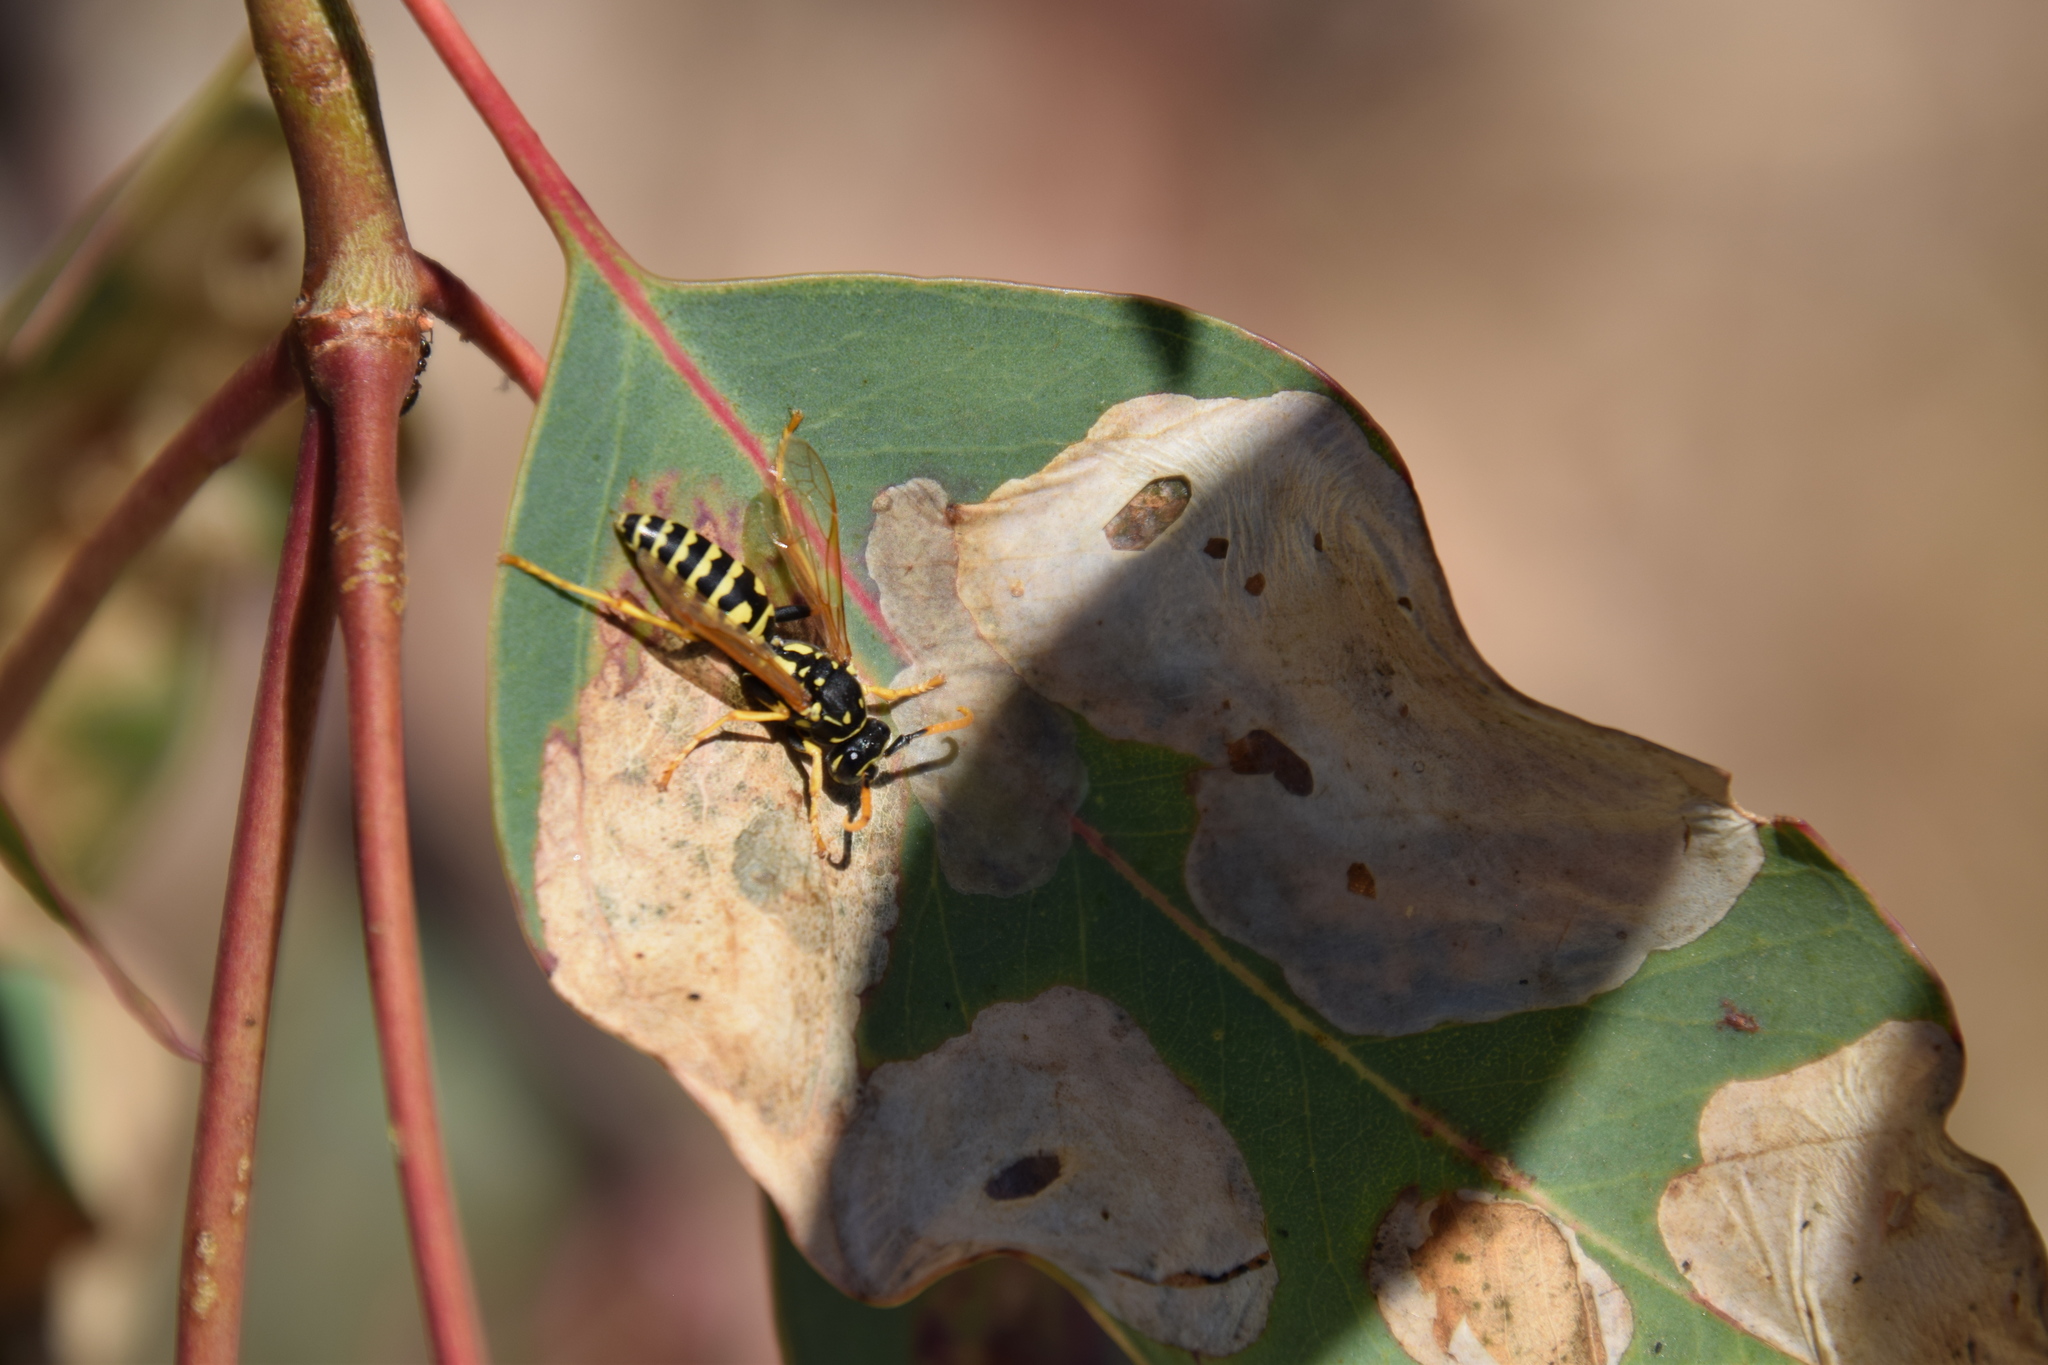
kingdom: Animalia
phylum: Arthropoda
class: Insecta
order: Hymenoptera
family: Eumenidae
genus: Polistes
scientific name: Polistes dominula
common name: Paper wasp
